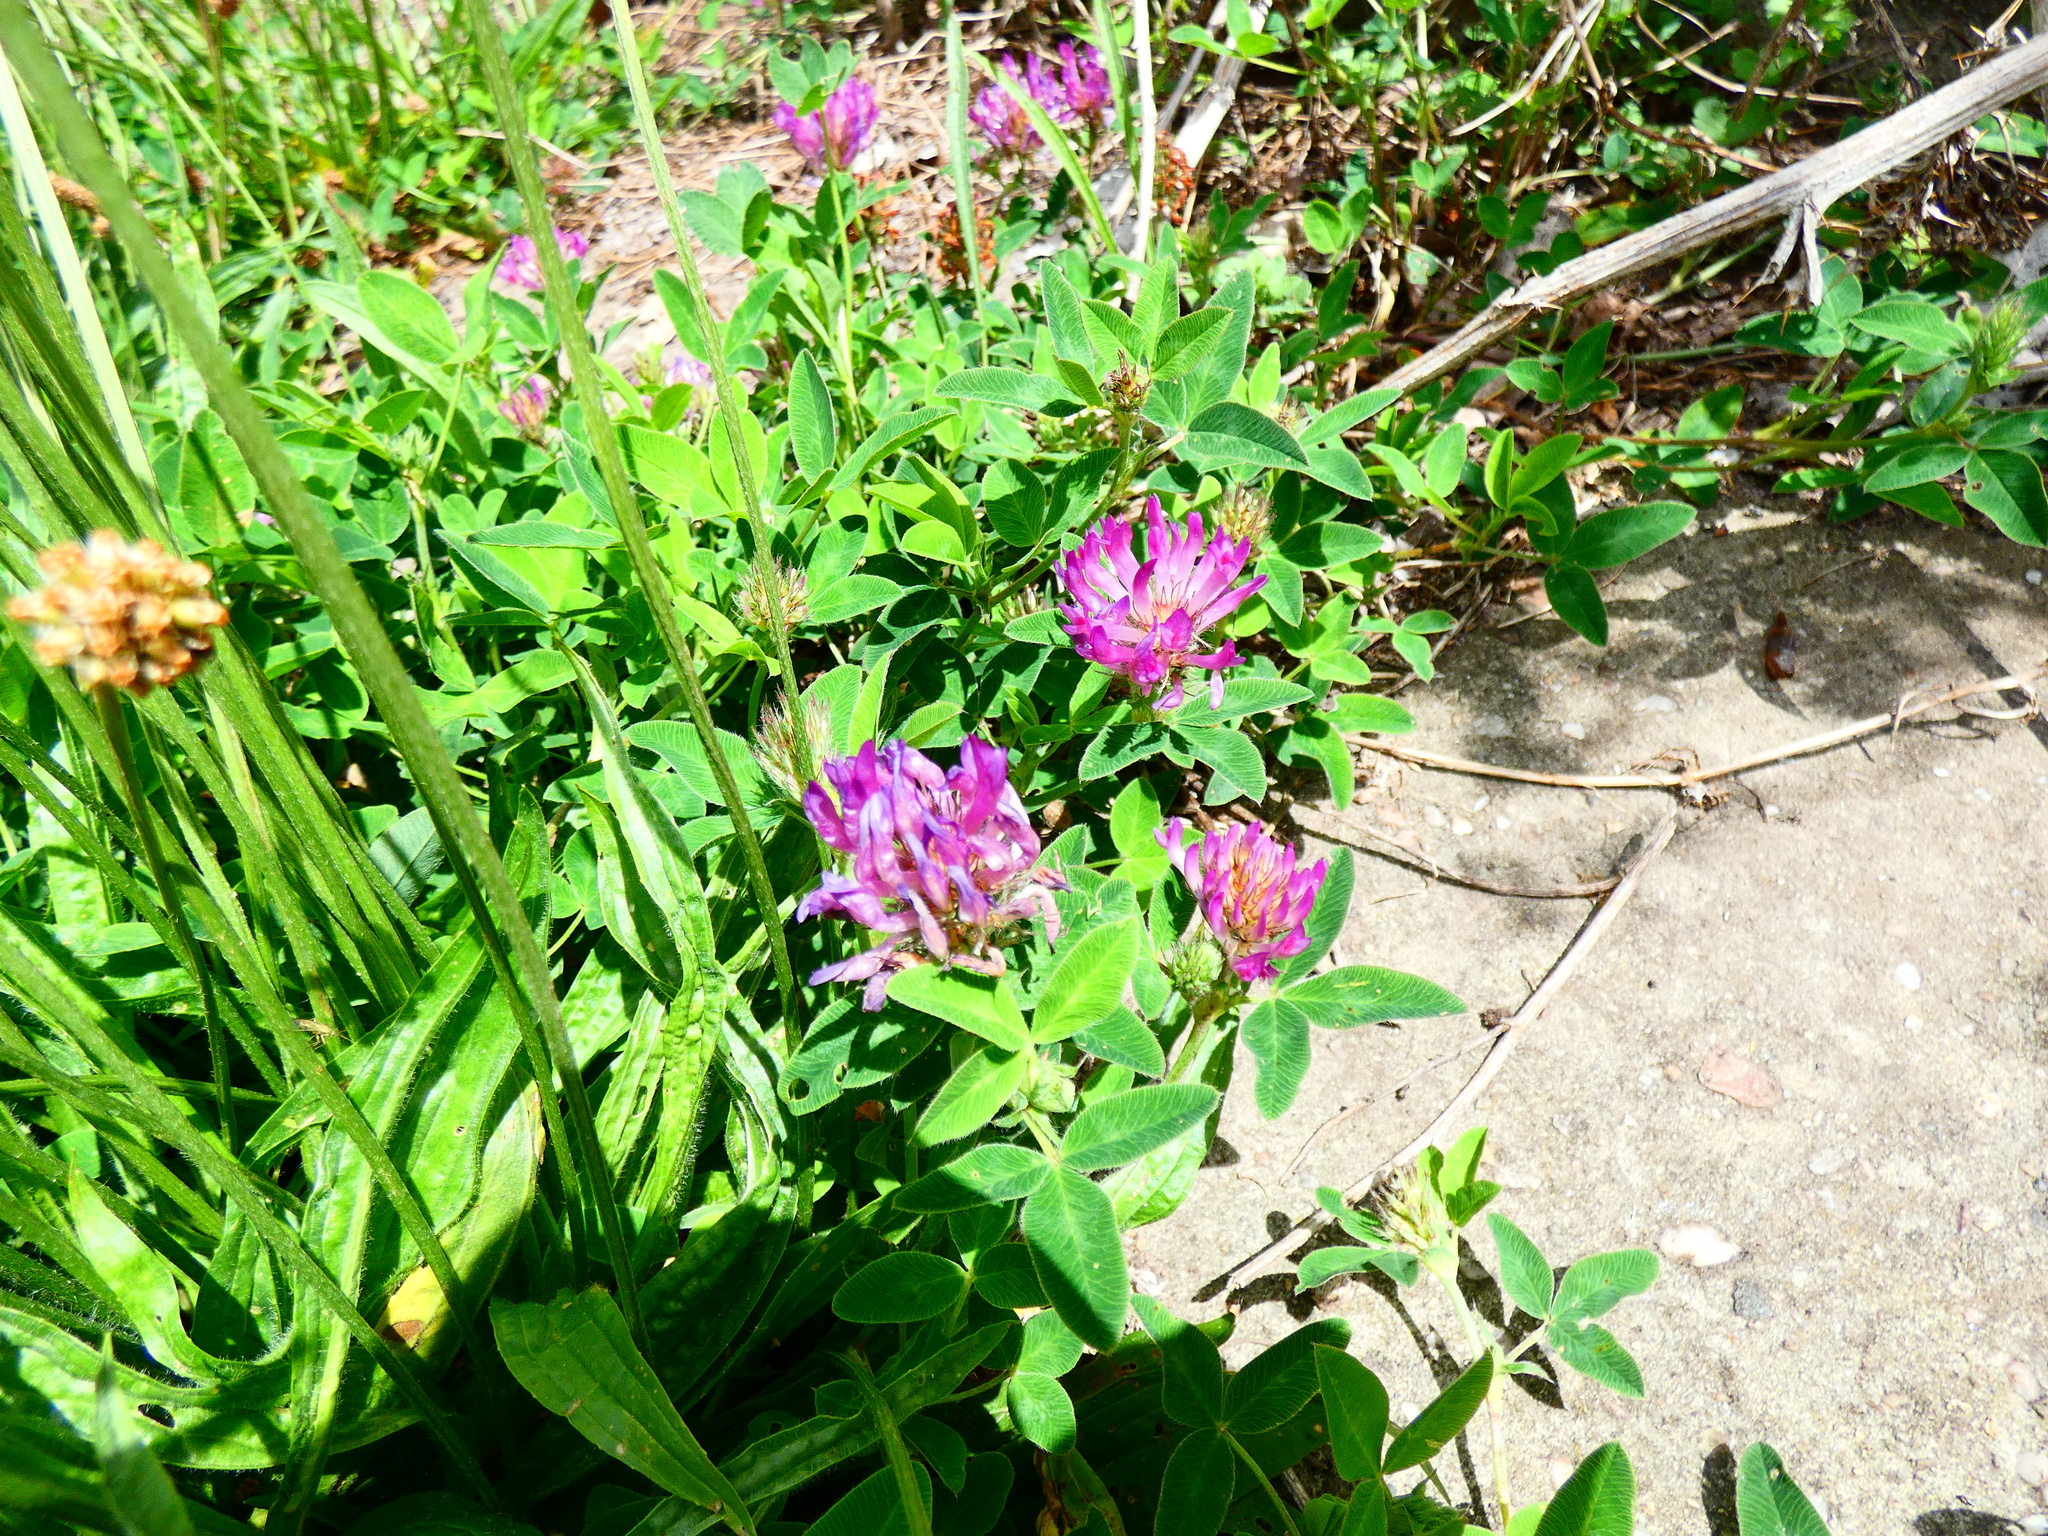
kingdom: Plantae
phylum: Tracheophyta
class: Magnoliopsida
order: Fabales
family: Fabaceae
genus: Trifolium
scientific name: Trifolium medium
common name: Zigzag clover
